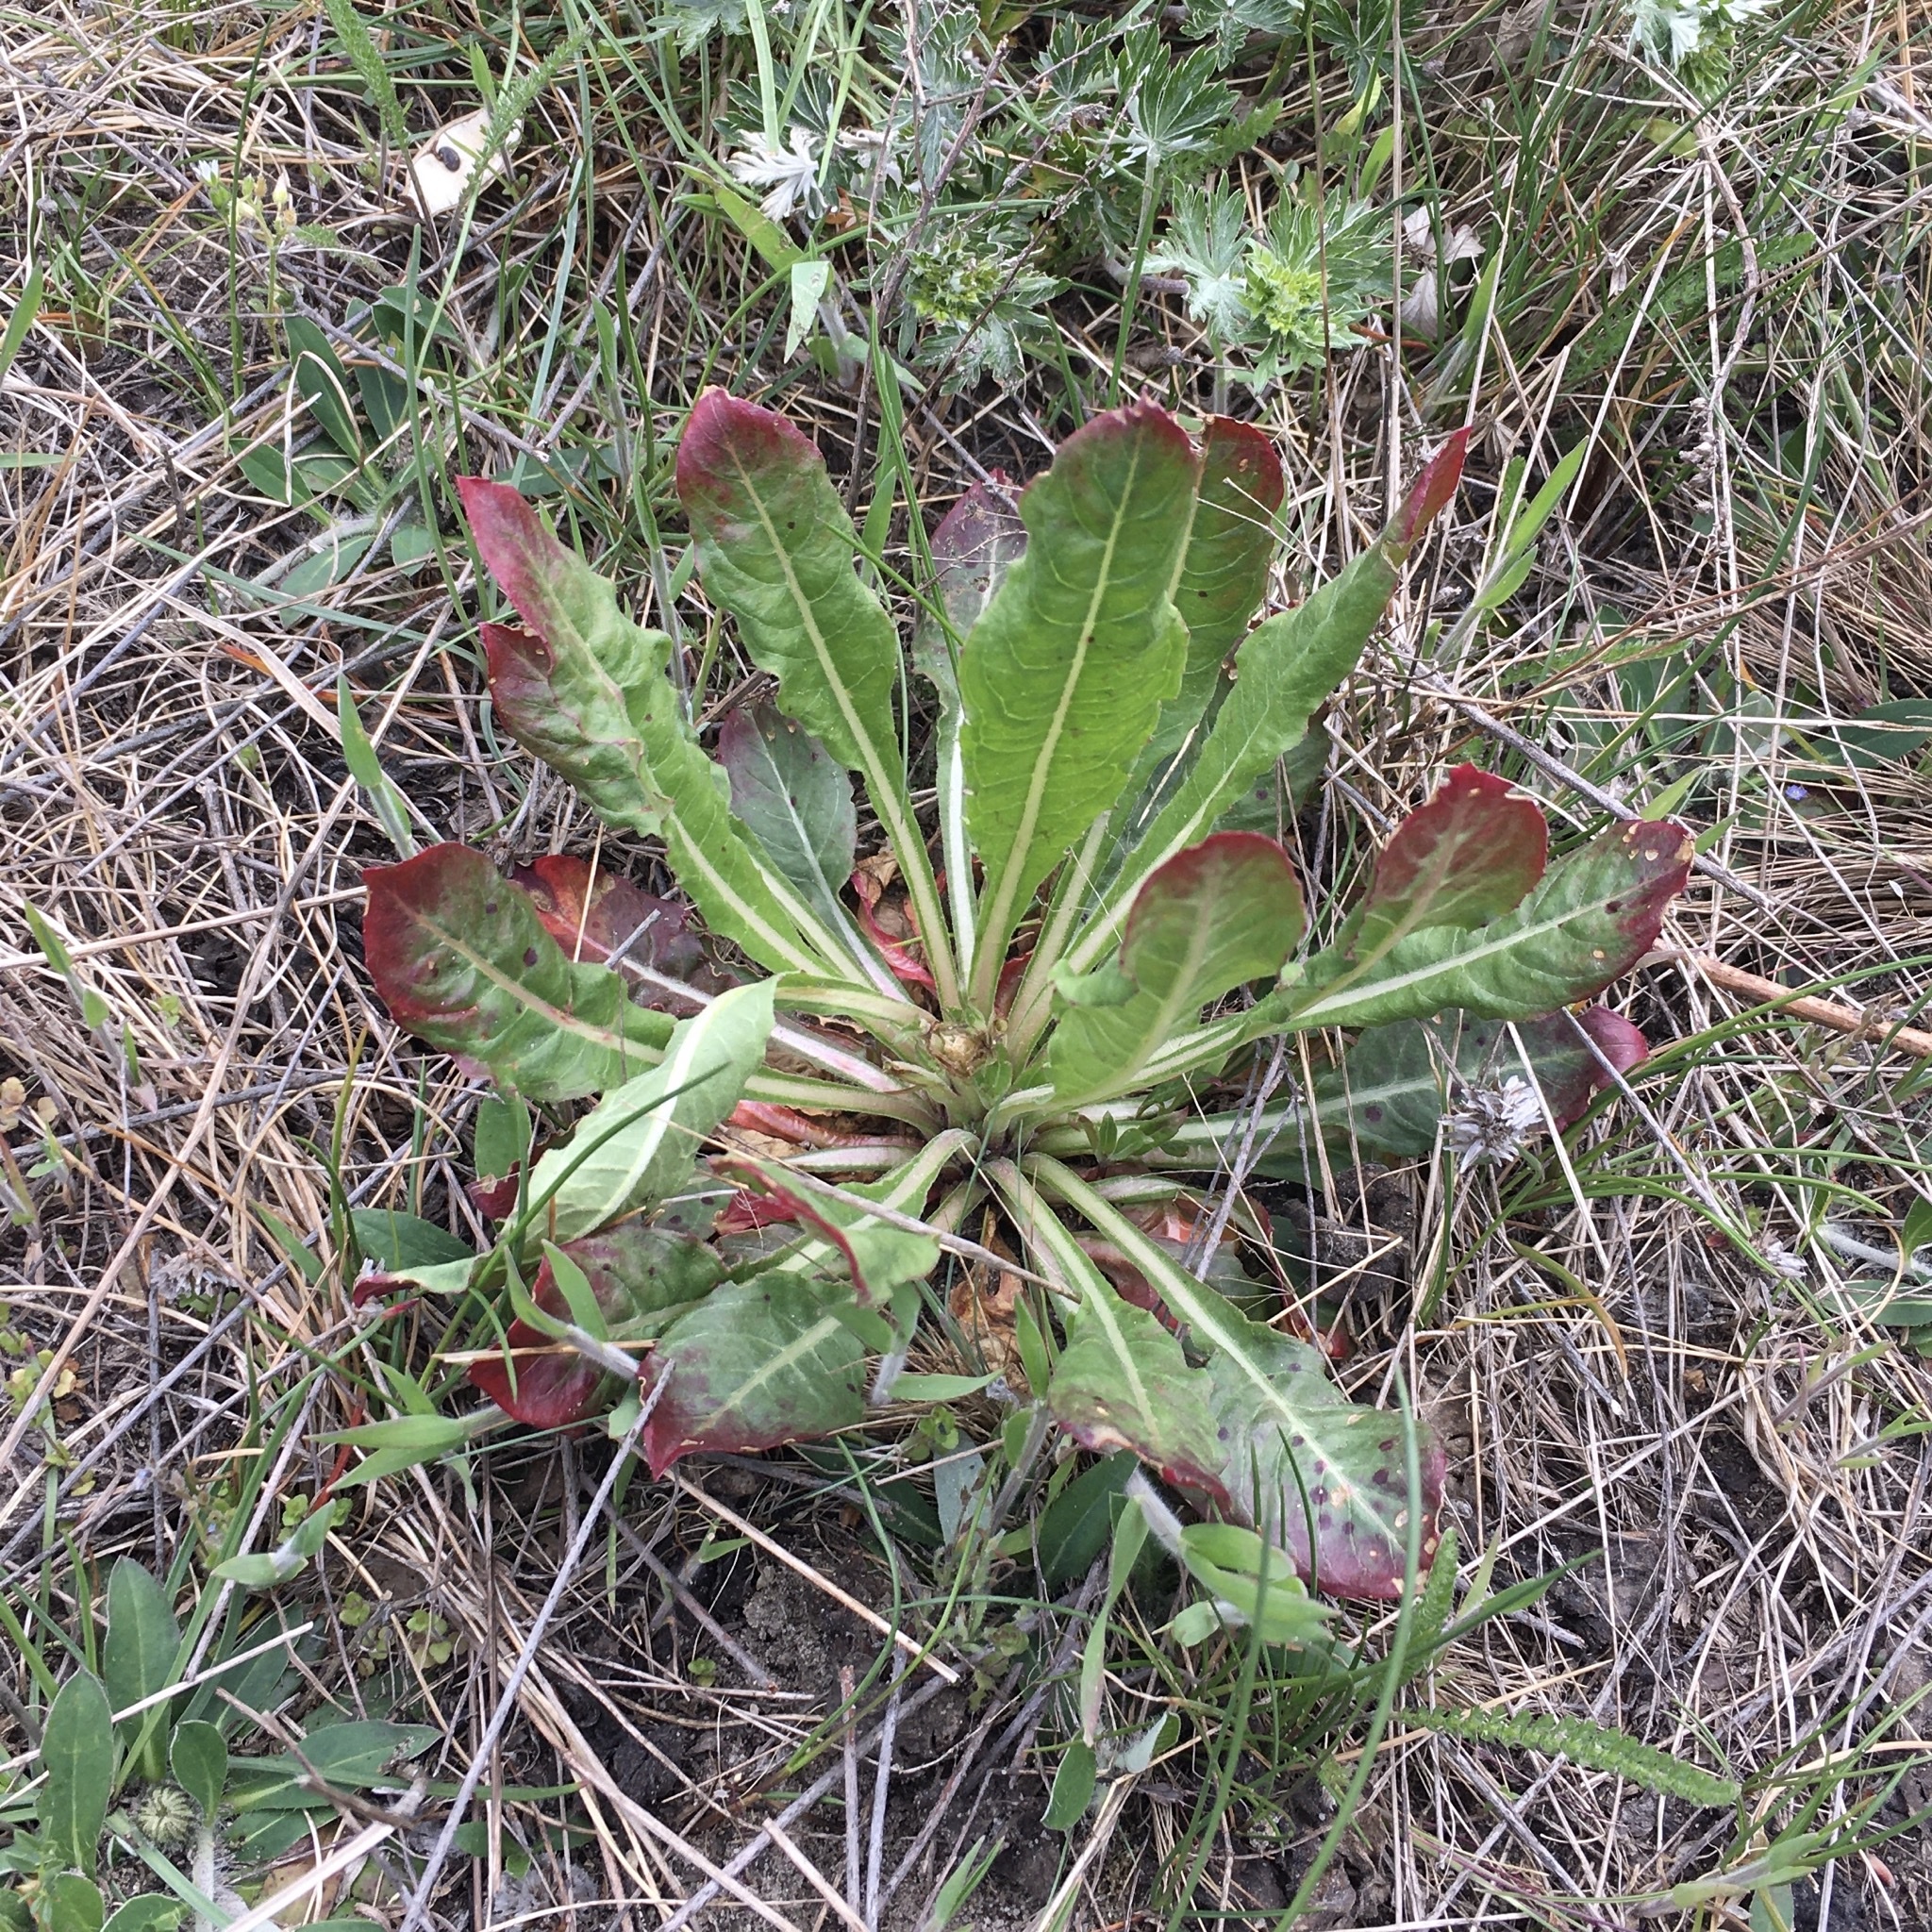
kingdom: Plantae
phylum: Tracheophyta
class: Magnoliopsida
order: Myrtales
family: Onagraceae
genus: Oenothera
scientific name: Oenothera
